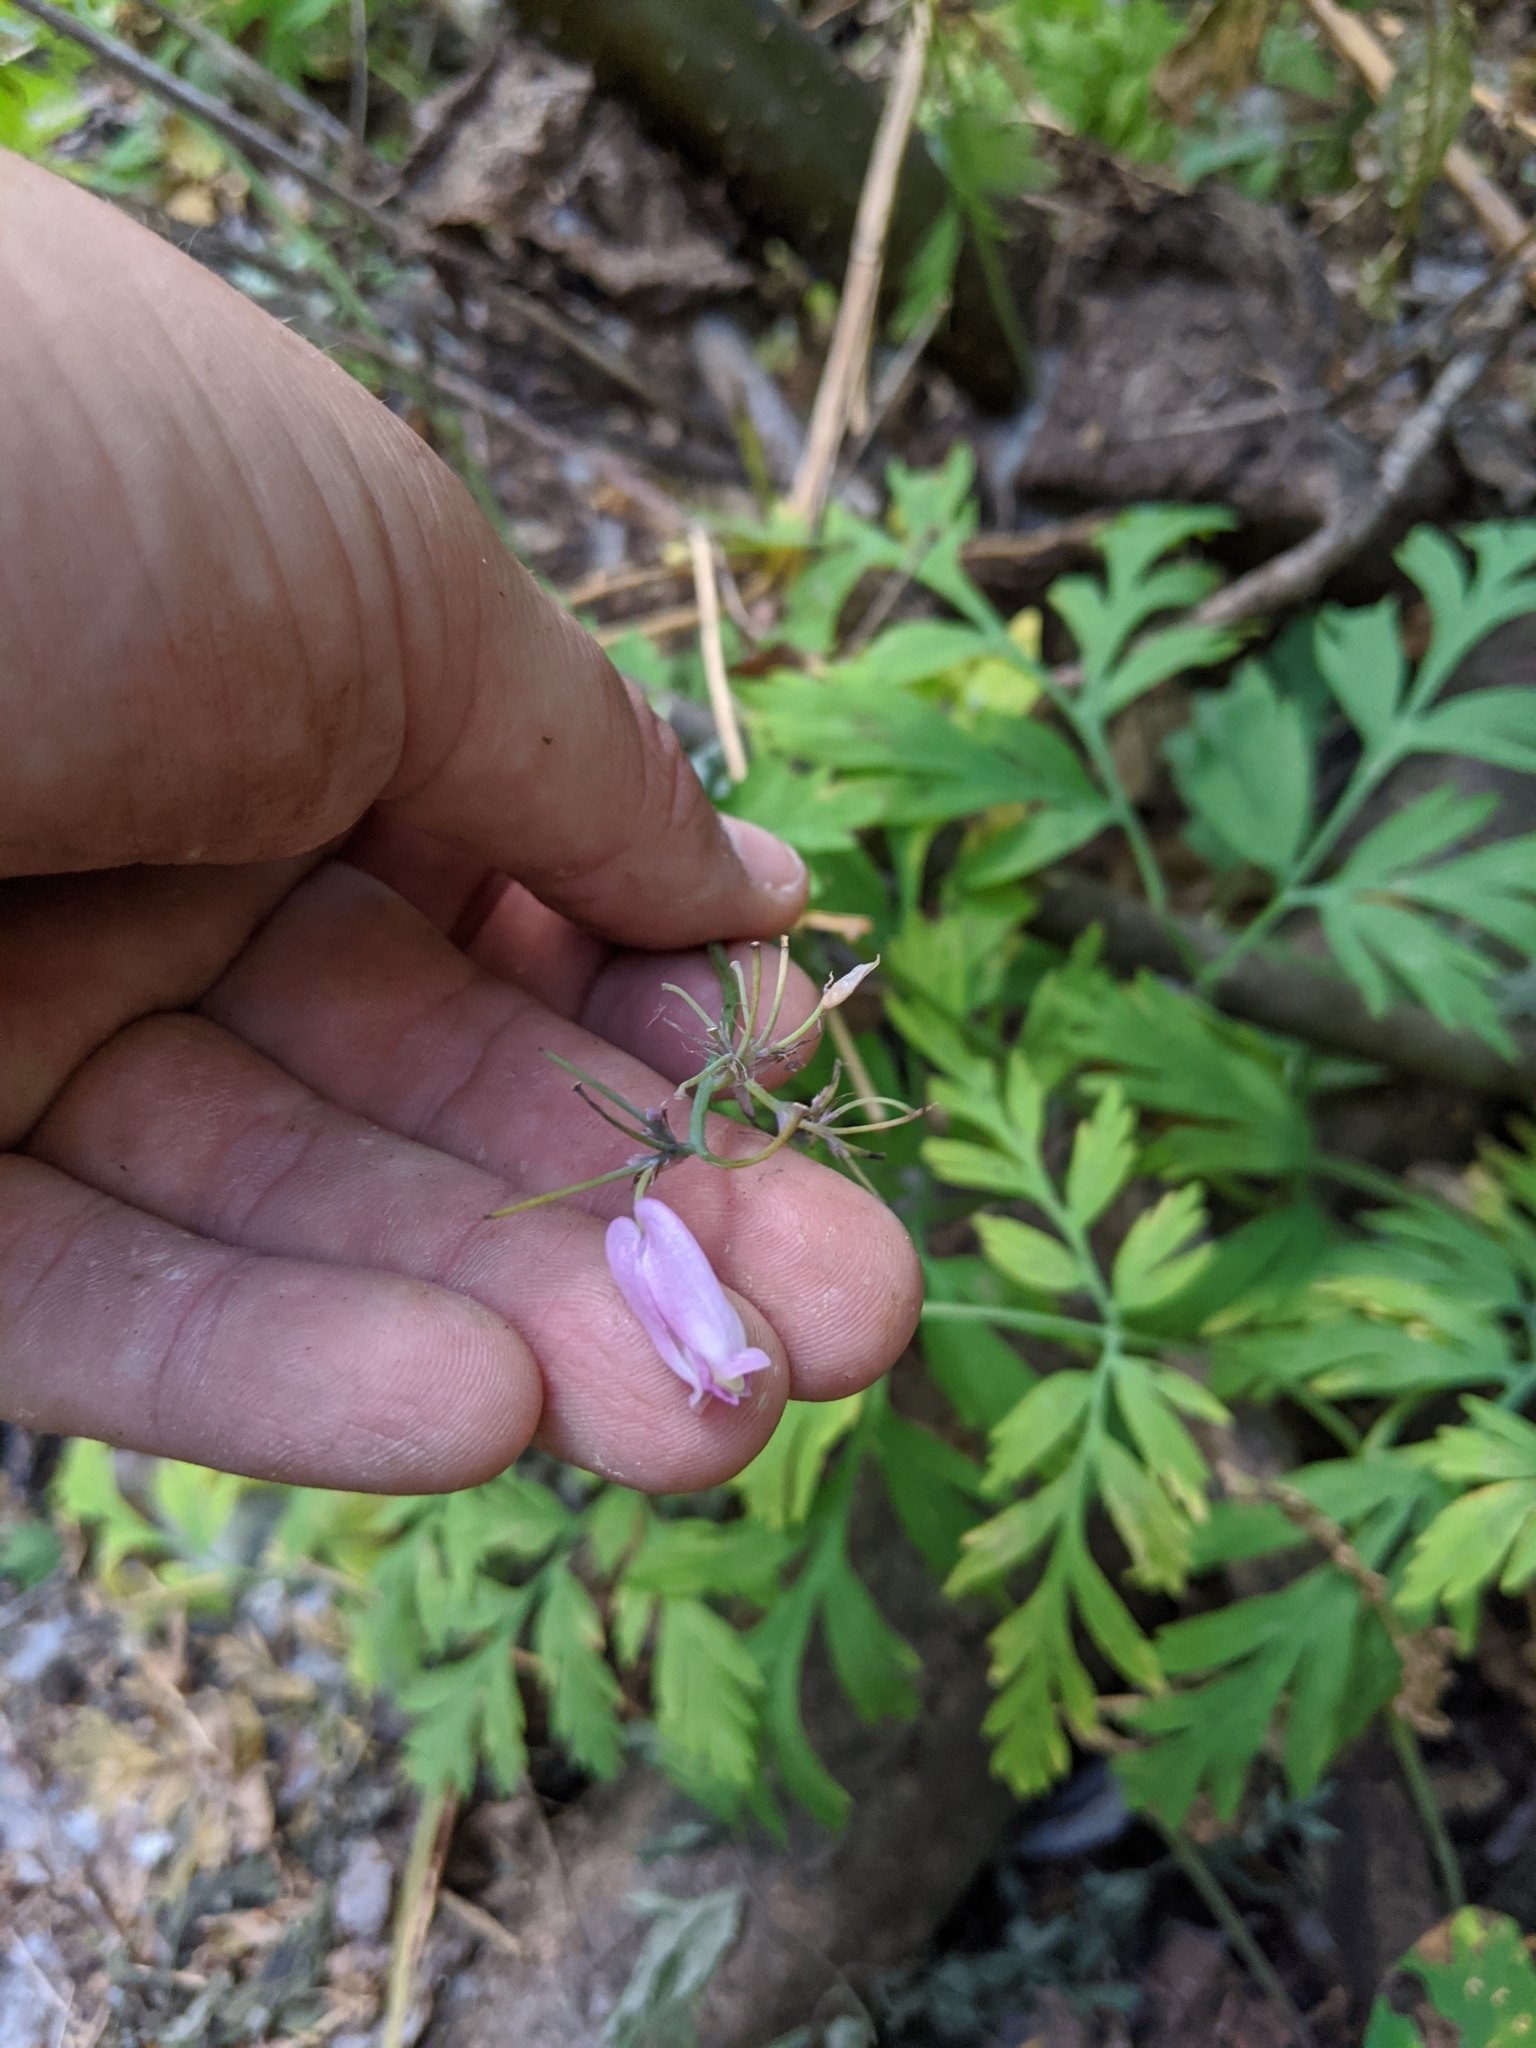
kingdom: Plantae
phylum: Tracheophyta
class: Magnoliopsida
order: Ranunculales
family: Papaveraceae
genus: Dicentra
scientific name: Dicentra formosa
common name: Bleeding-heart
